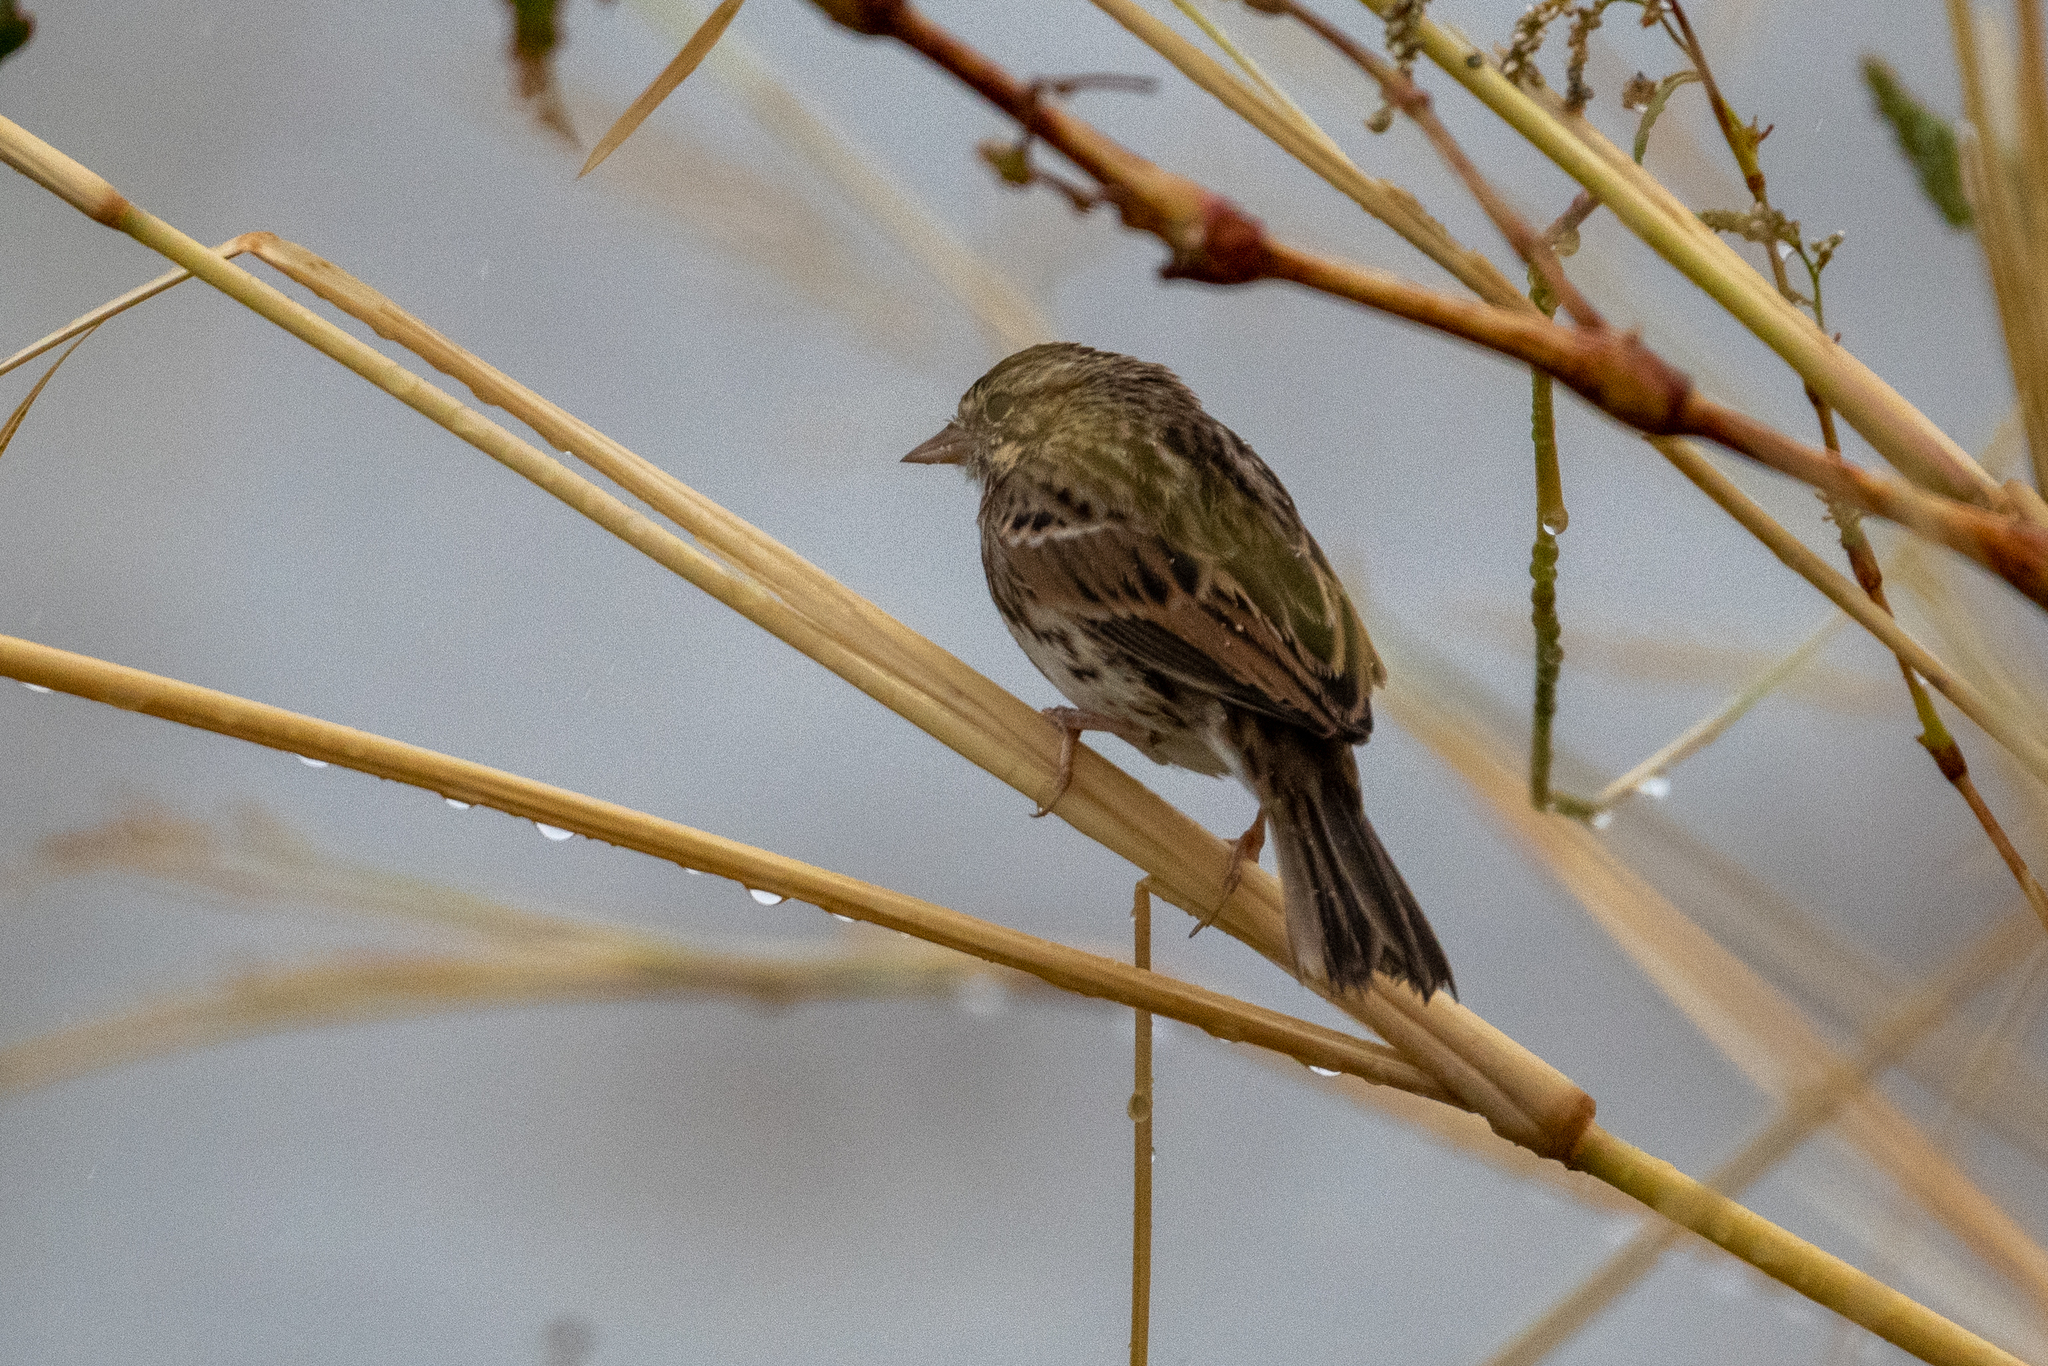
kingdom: Animalia
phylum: Chordata
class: Aves
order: Passeriformes
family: Passerellidae
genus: Passerculus
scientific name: Passerculus sandwichensis
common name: Savannah sparrow
